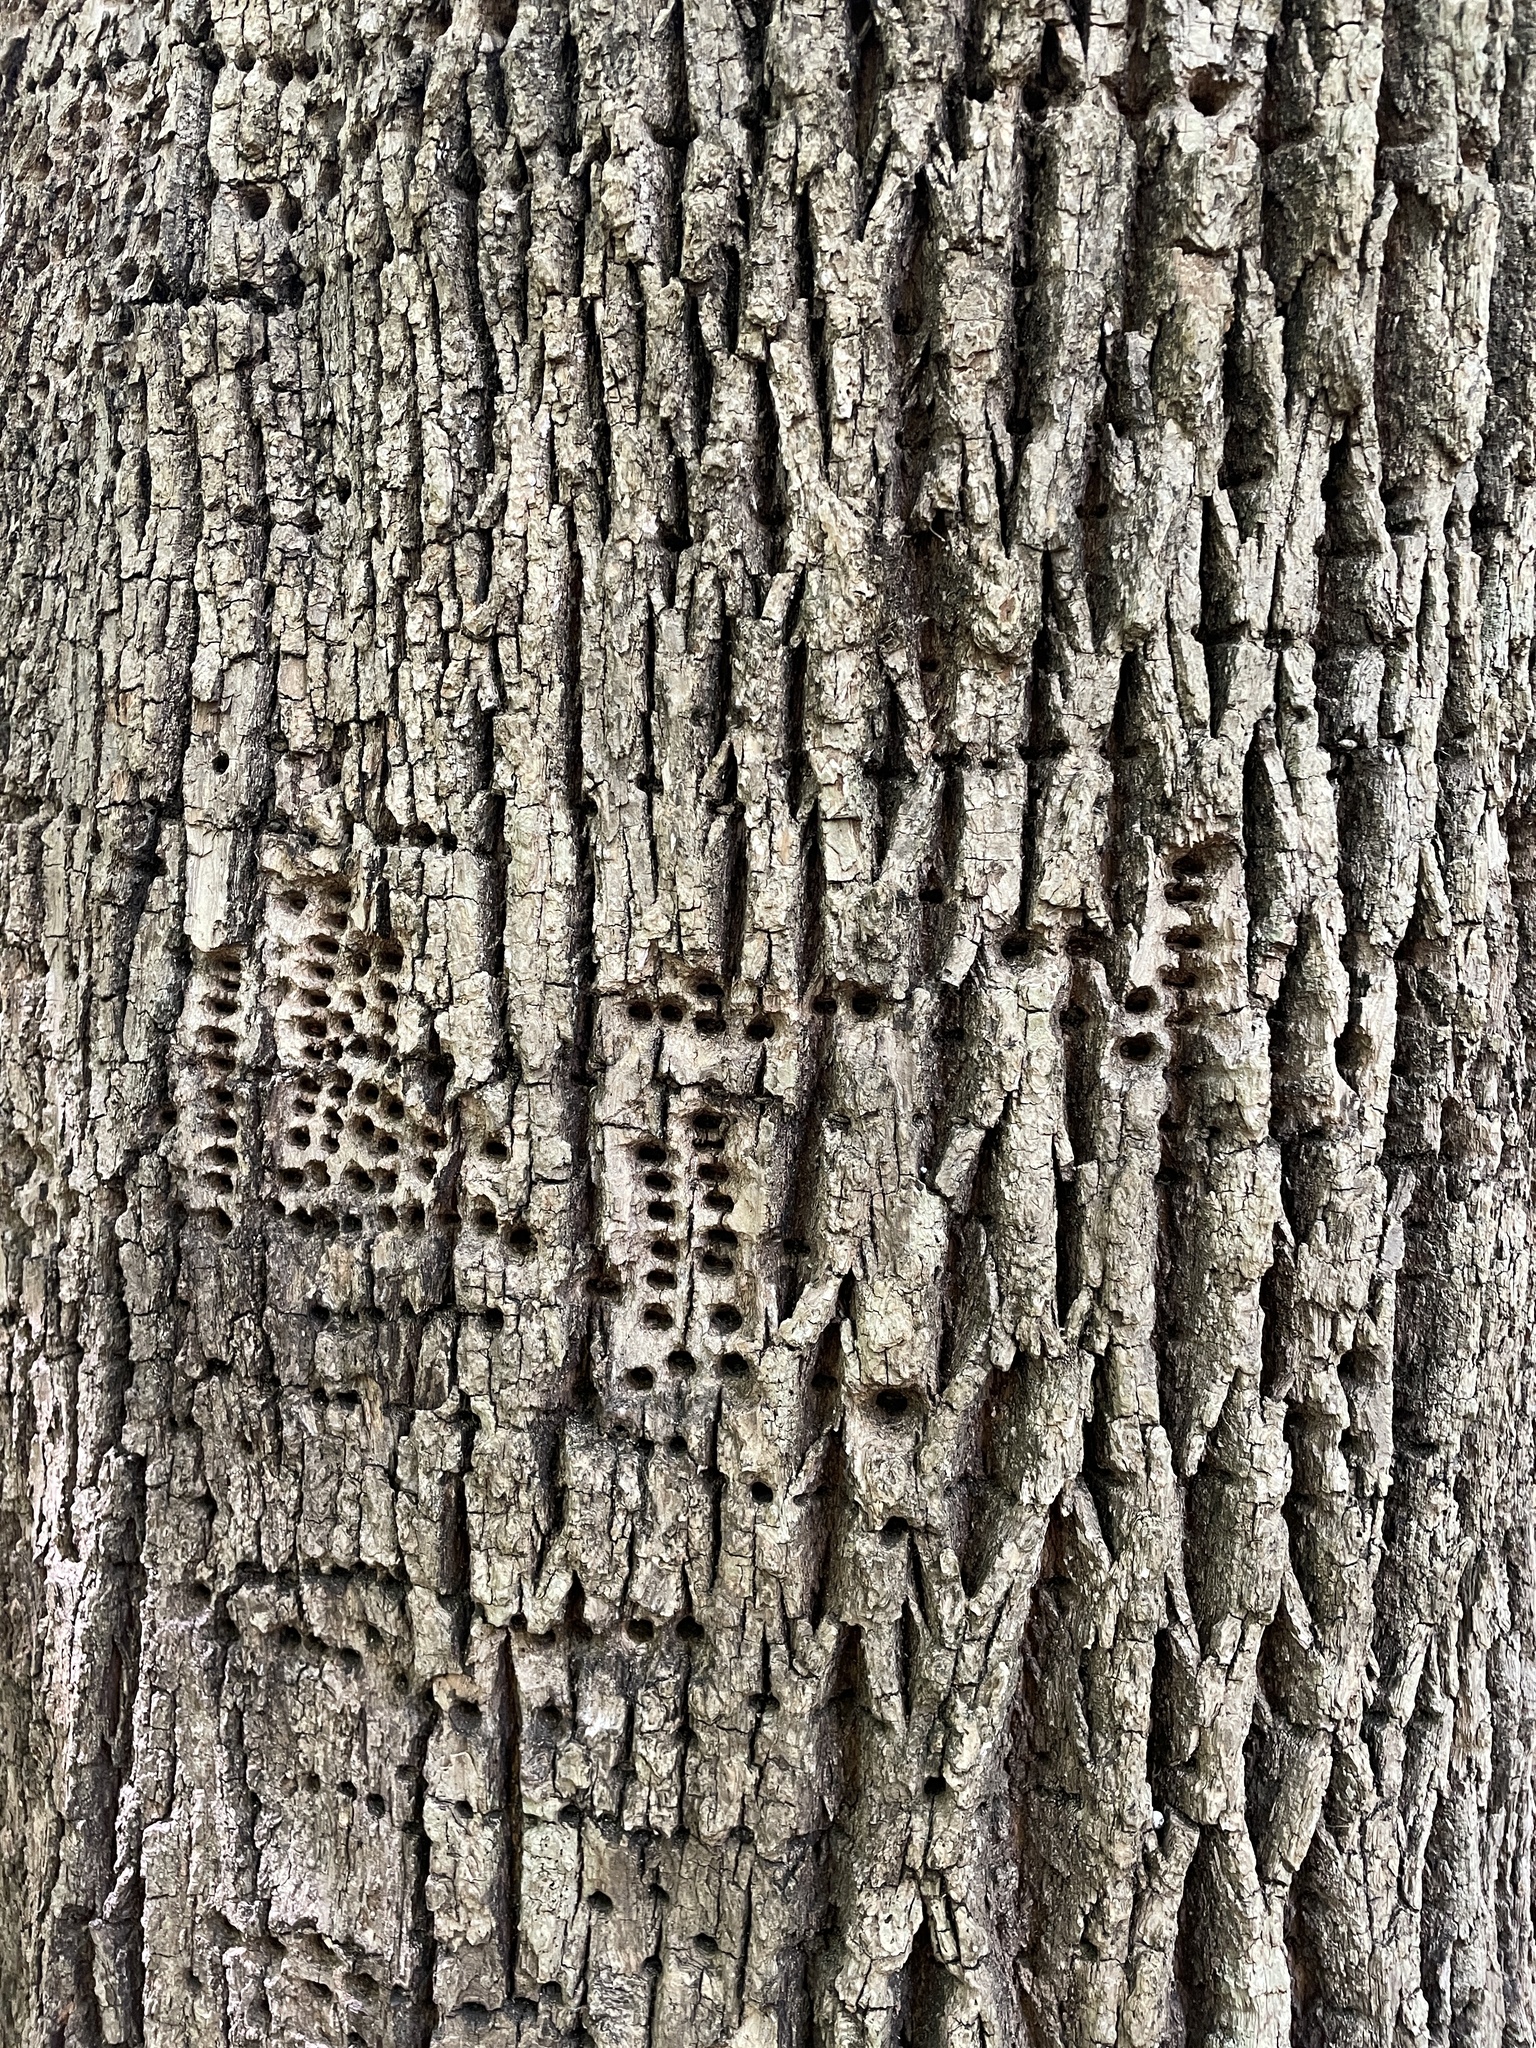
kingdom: Animalia
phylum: Chordata
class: Aves
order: Piciformes
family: Picidae
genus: Sphyrapicus
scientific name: Sphyrapicus varius
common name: Yellow-bellied sapsucker
